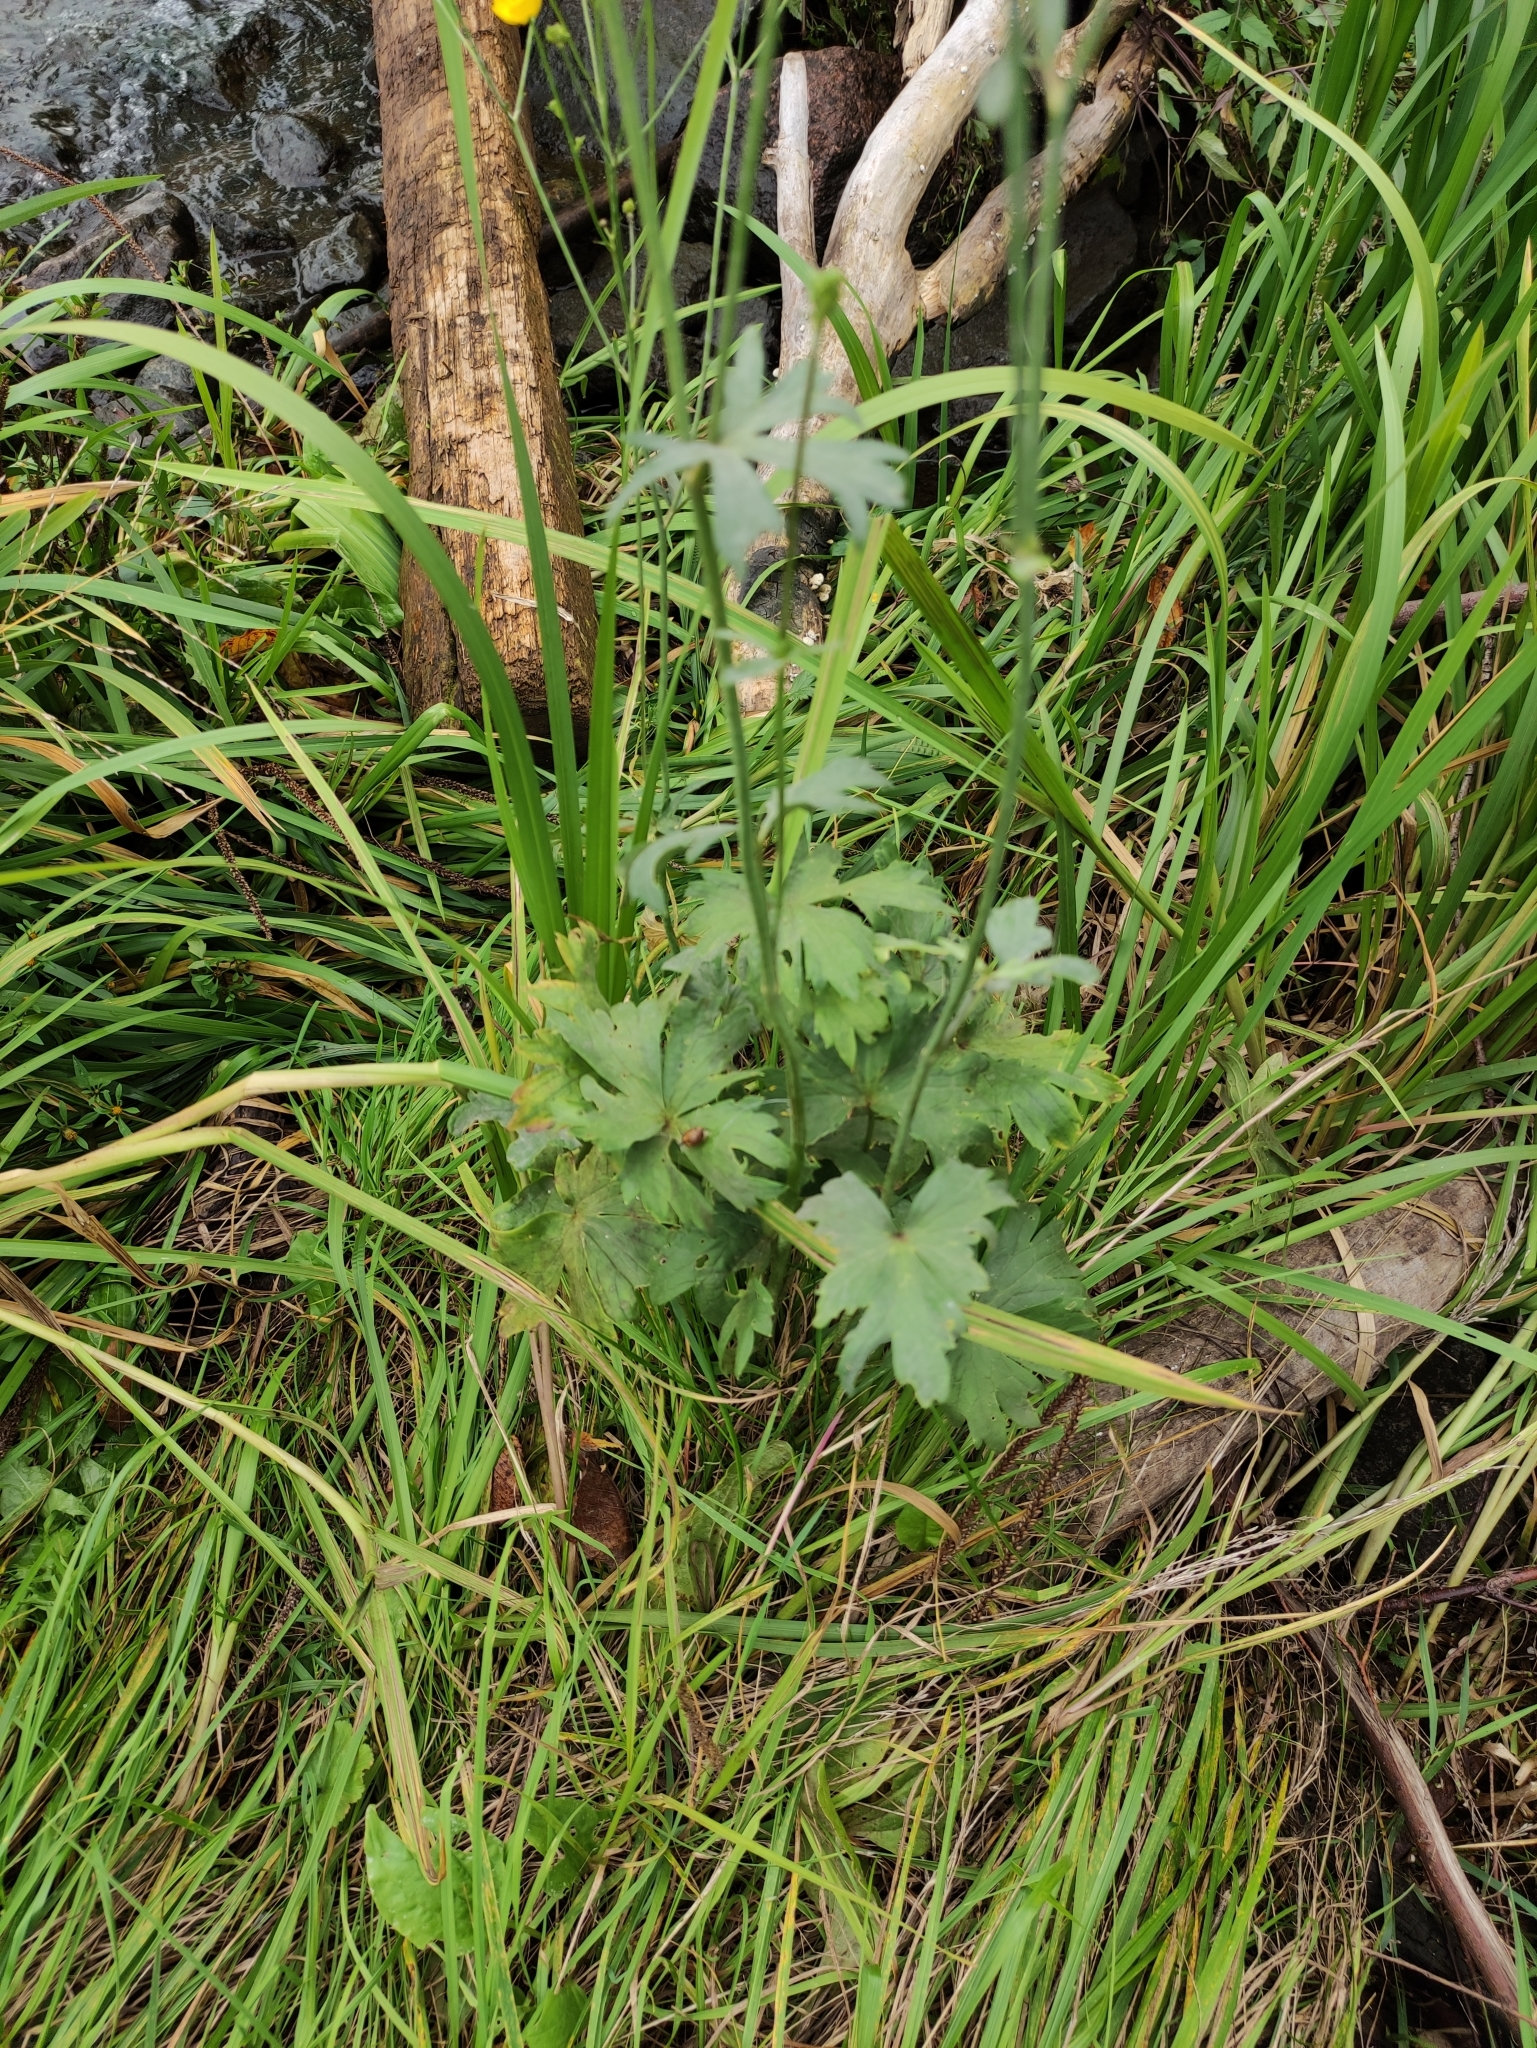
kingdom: Plantae
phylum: Tracheophyta
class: Magnoliopsida
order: Ranunculales
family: Ranunculaceae
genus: Ranunculus
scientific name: Ranunculus acris
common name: Meadow buttercup
